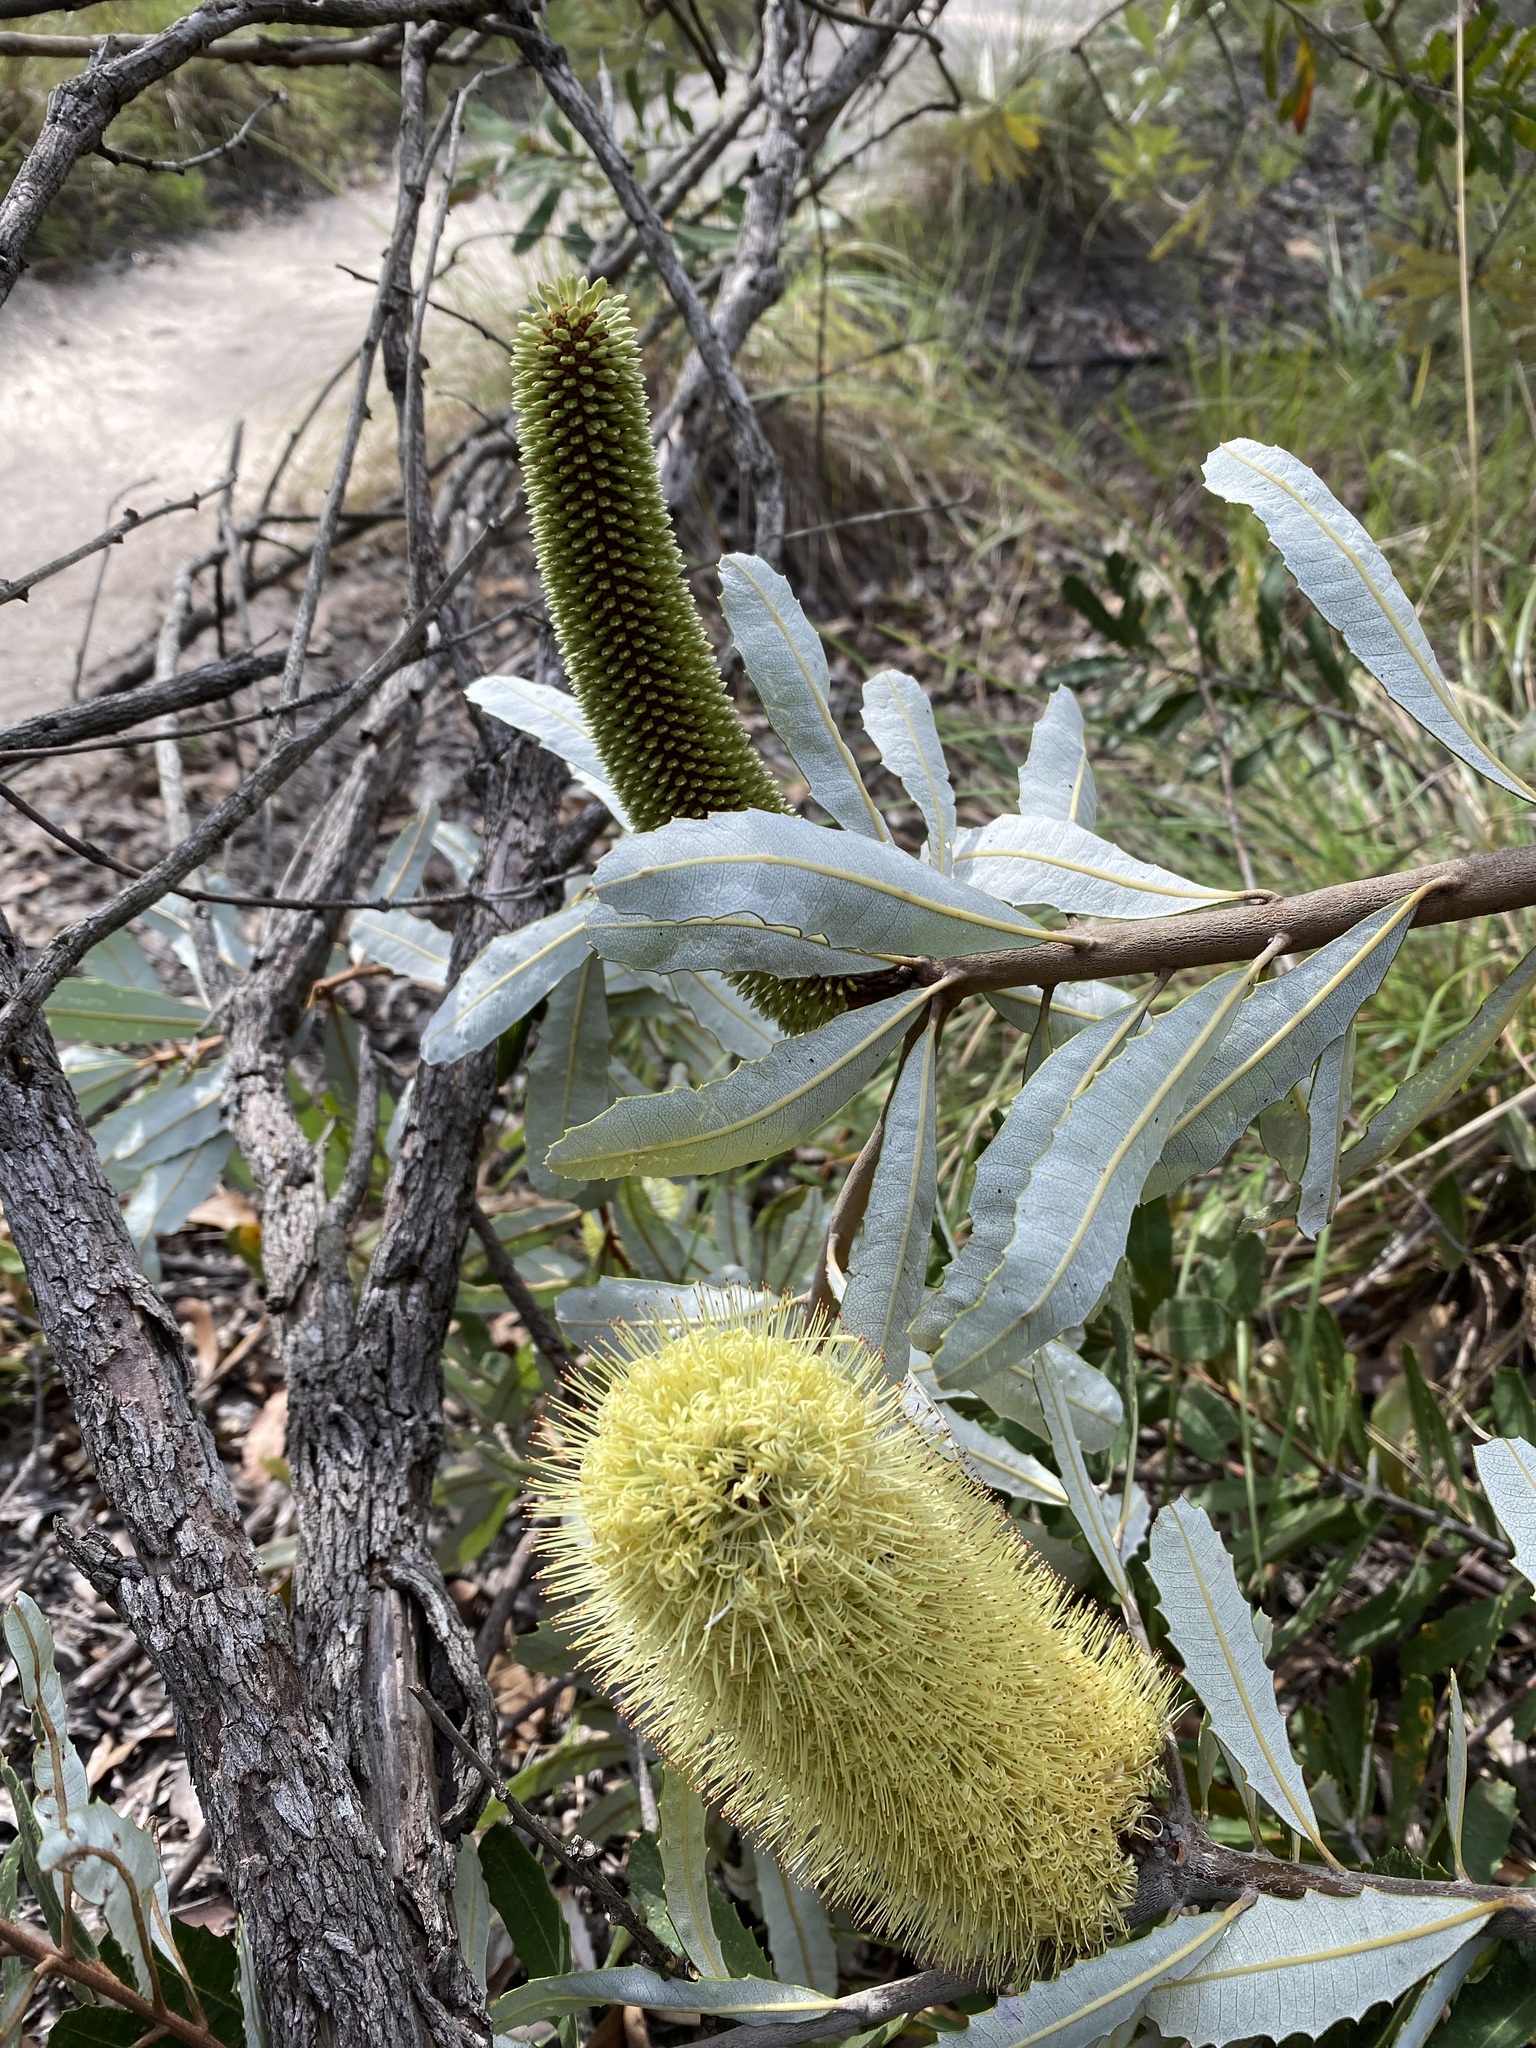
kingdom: Plantae
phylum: Tracheophyta
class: Magnoliopsida
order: Proteales
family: Proteaceae
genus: Banksia
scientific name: Banksia oblongifolia
